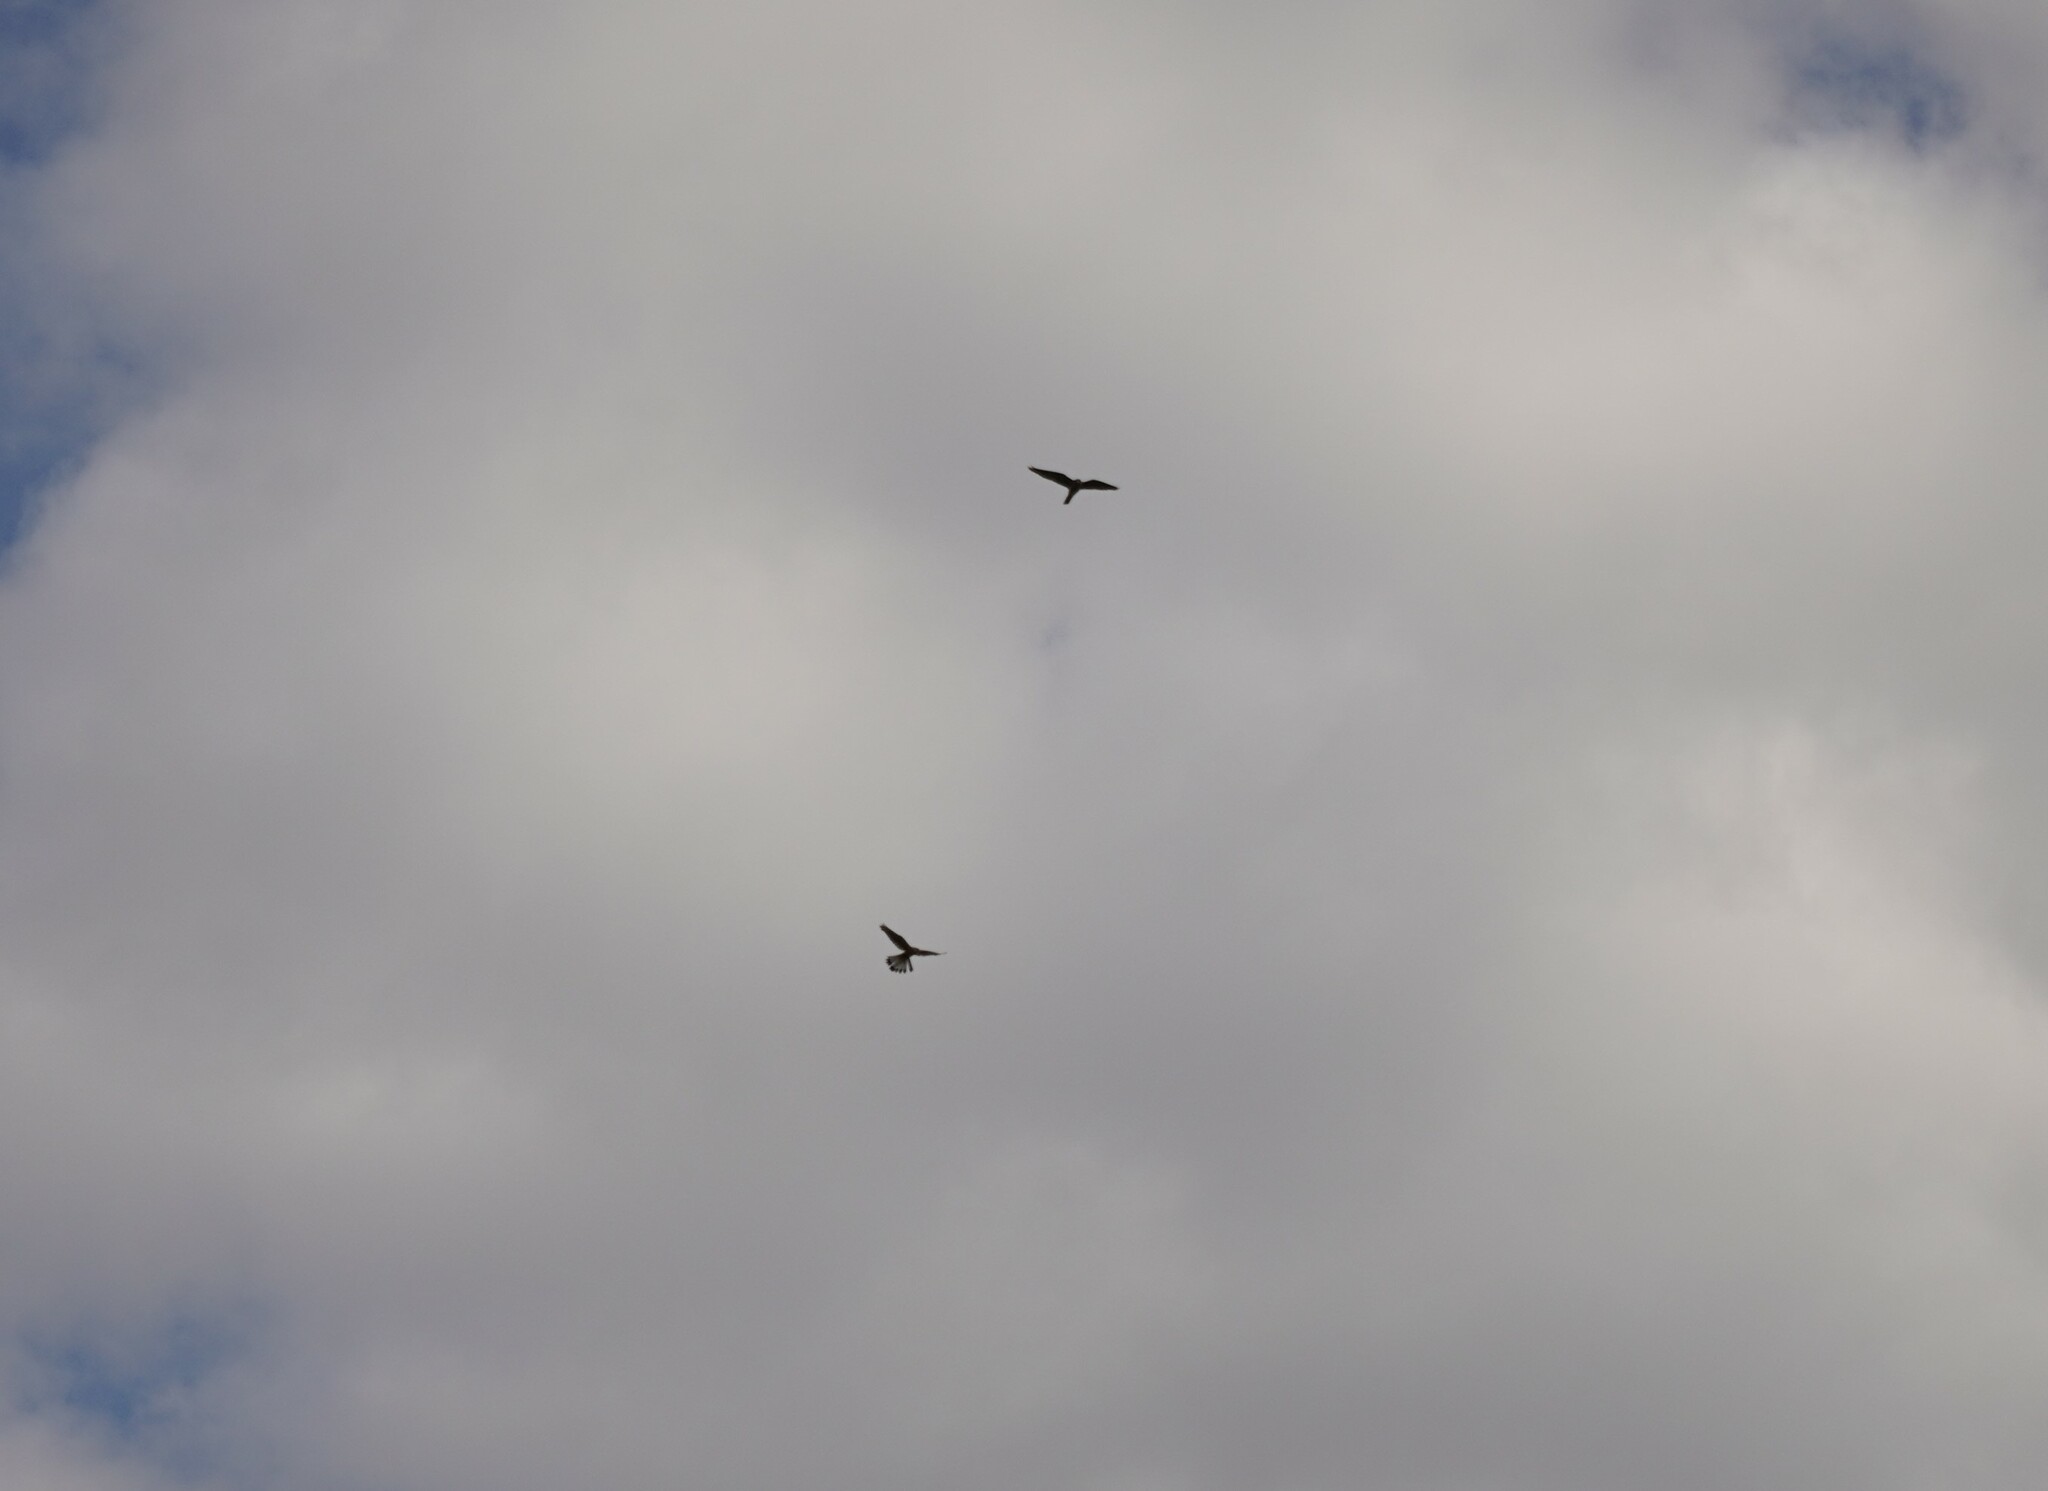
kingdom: Animalia
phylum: Chordata
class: Aves
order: Falconiformes
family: Falconidae
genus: Falco
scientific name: Falco tinnunculus
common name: Common kestrel
